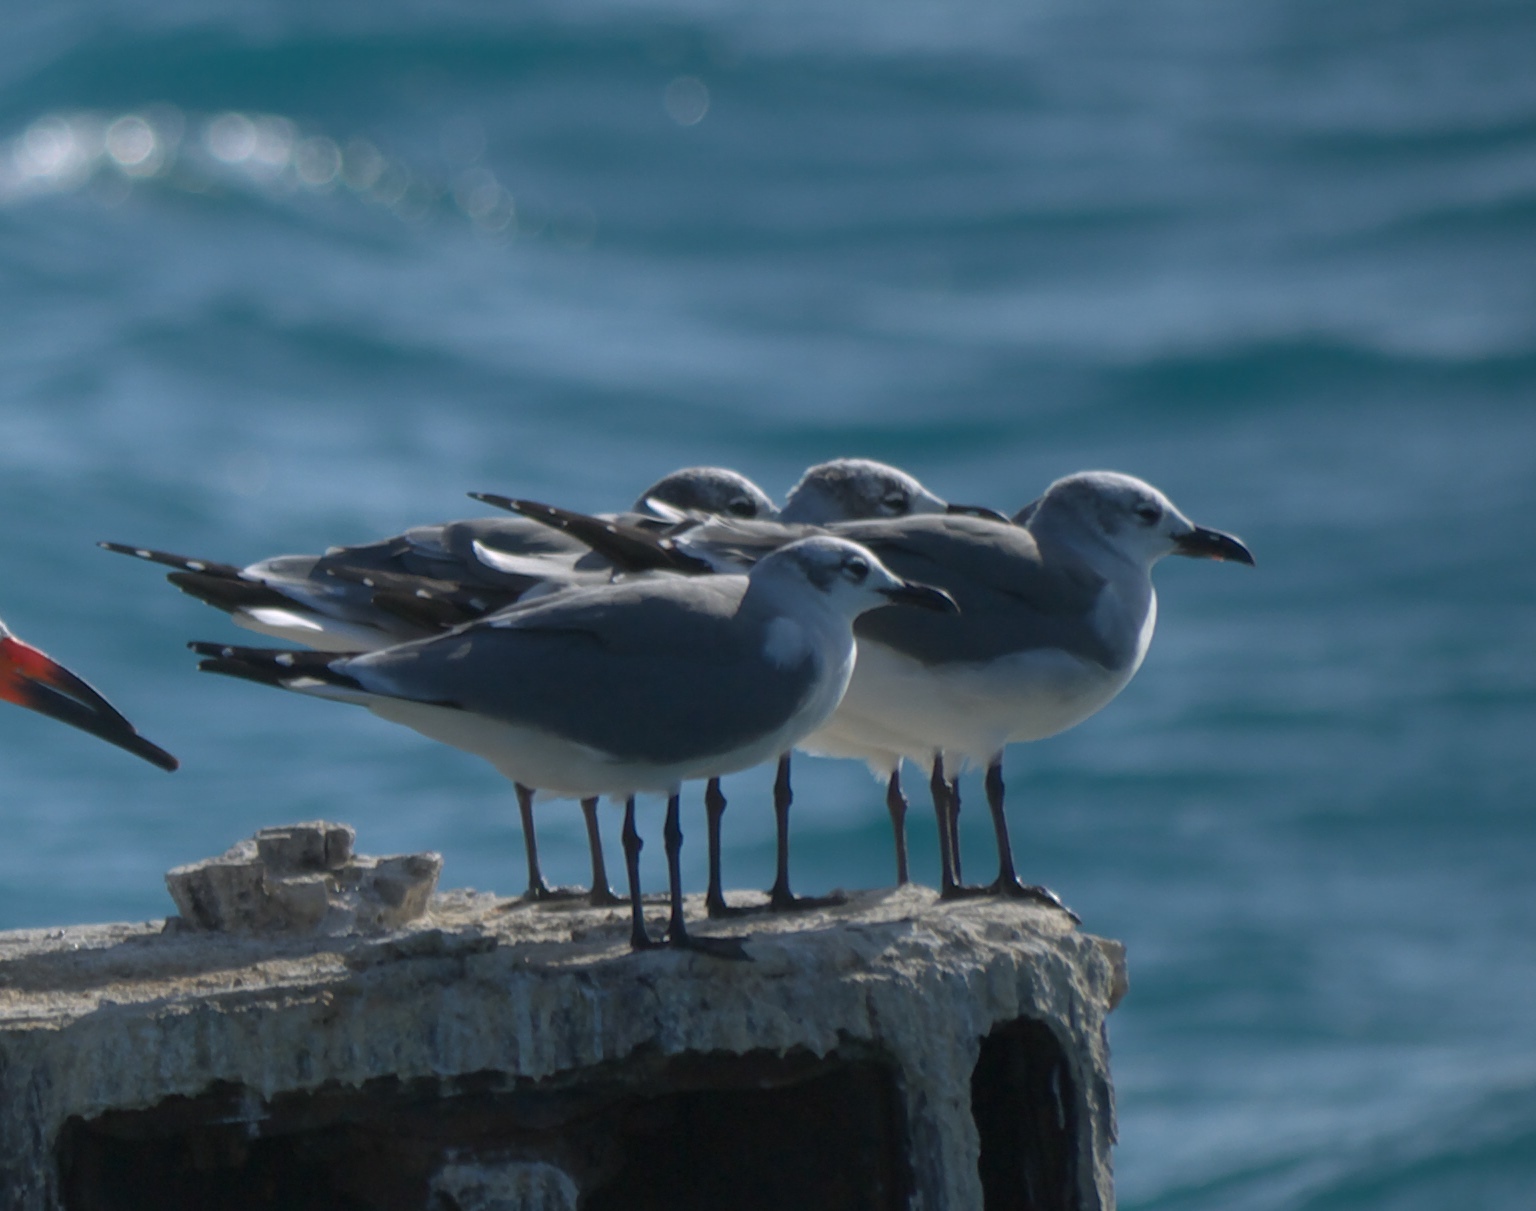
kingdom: Animalia
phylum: Chordata
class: Aves
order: Charadriiformes
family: Laridae
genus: Leucophaeus
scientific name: Leucophaeus atricilla
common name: Laughing gull
